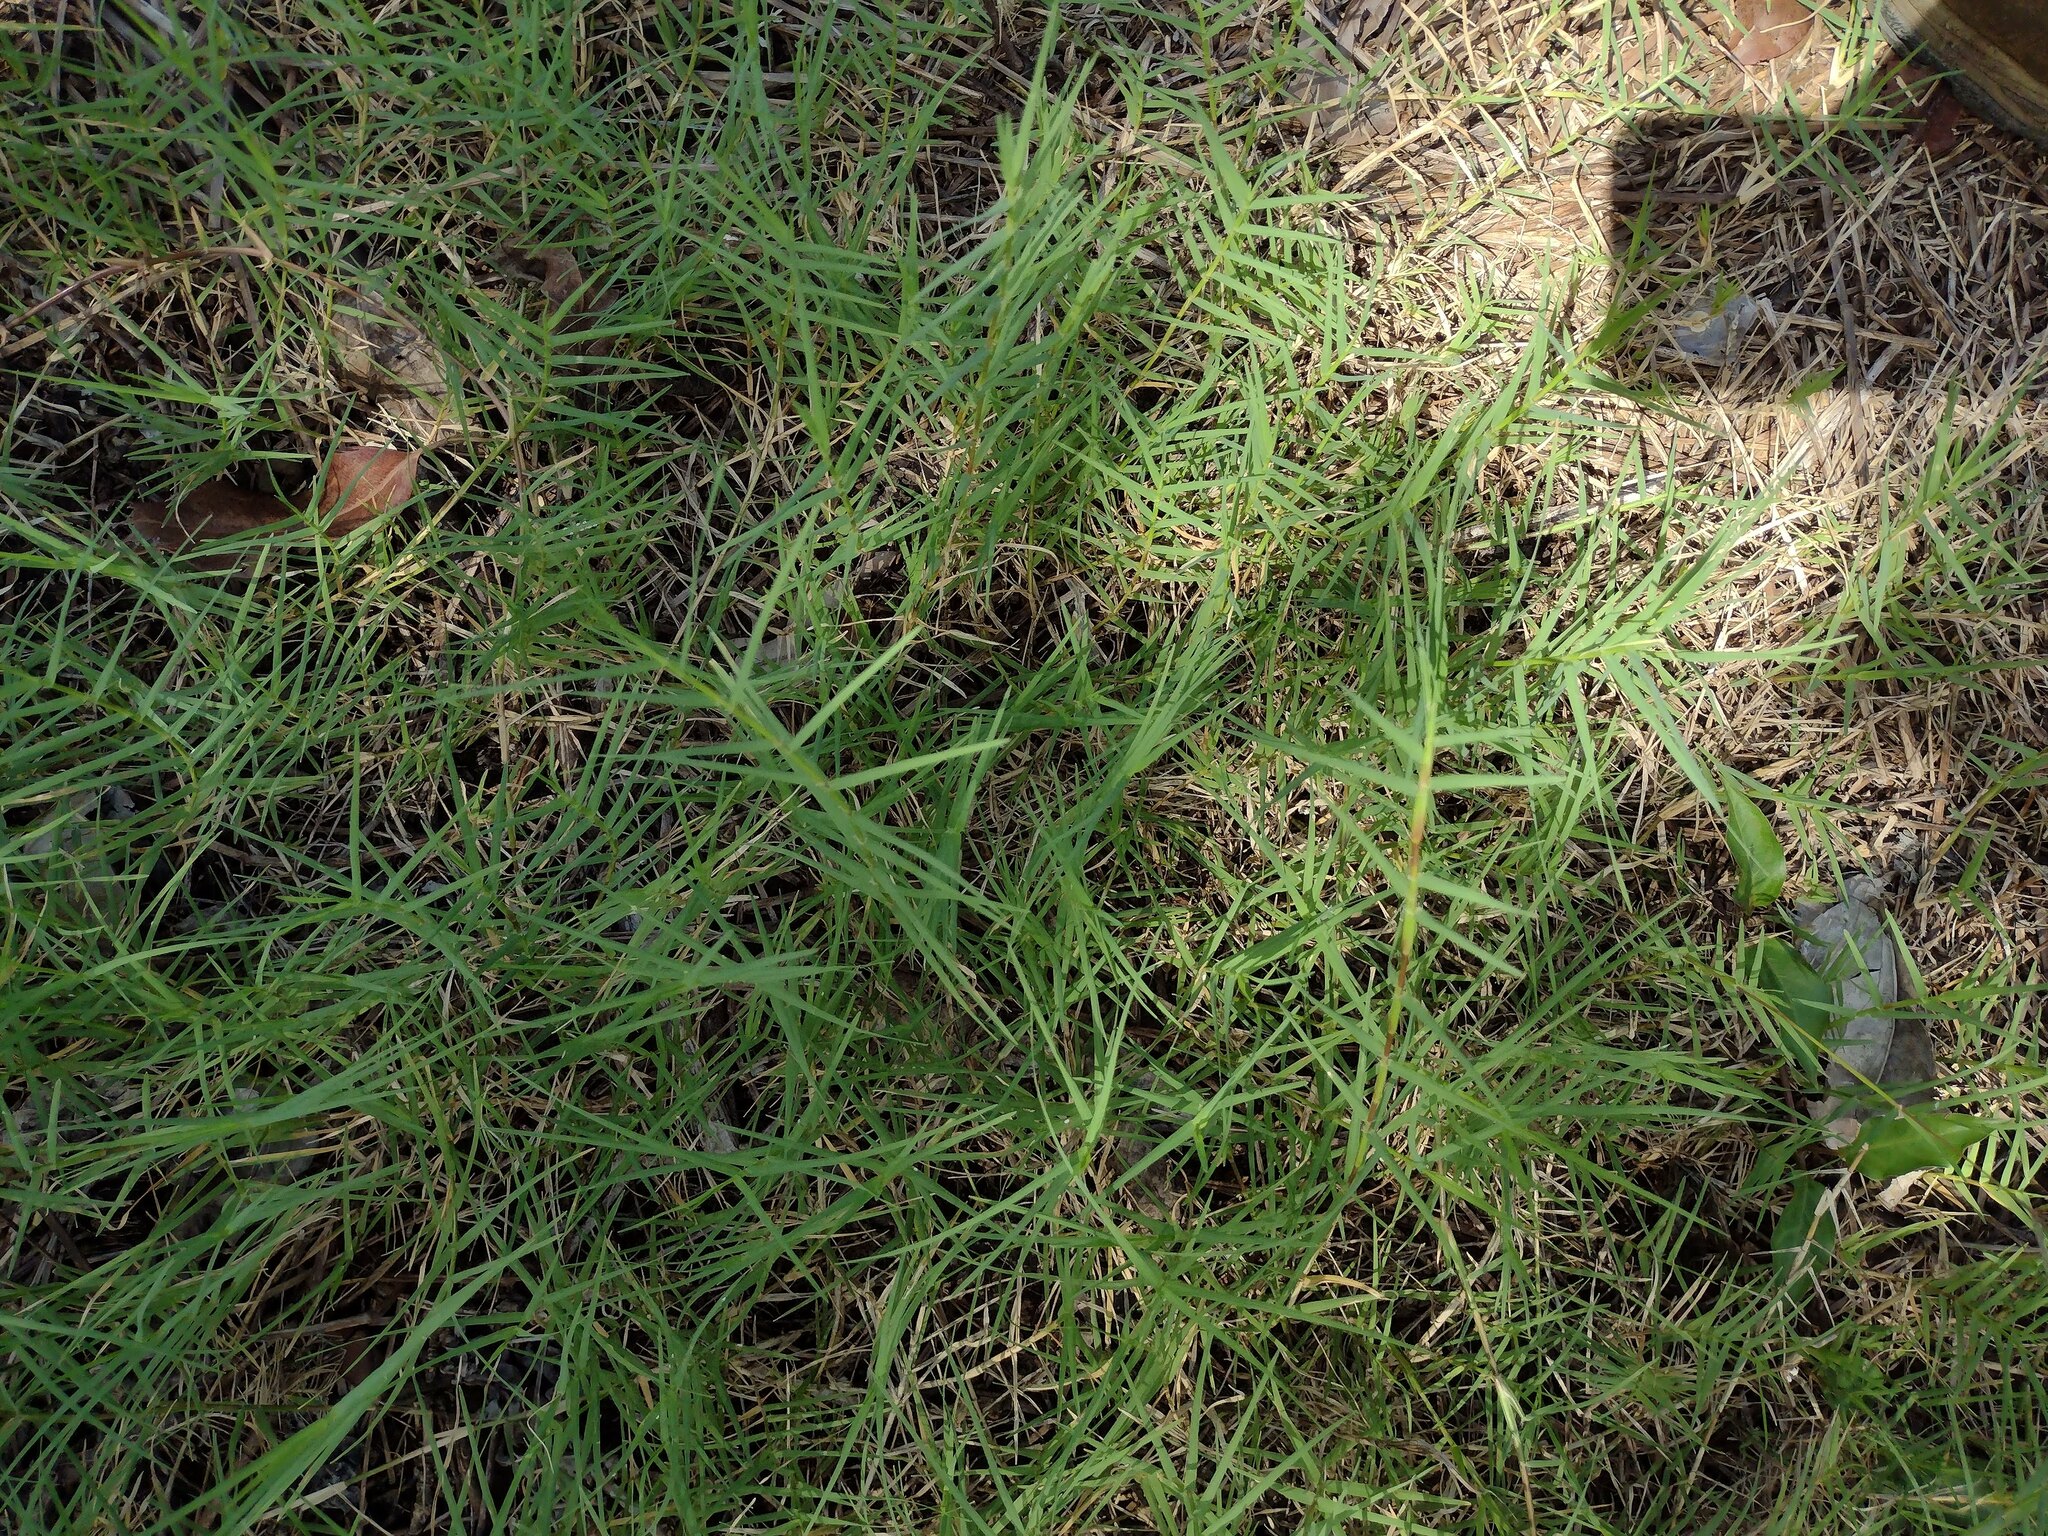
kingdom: Plantae
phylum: Tracheophyta
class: Liliopsida
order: Poales
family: Poaceae
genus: Cynodon
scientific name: Cynodon dactylon
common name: Bermuda grass
